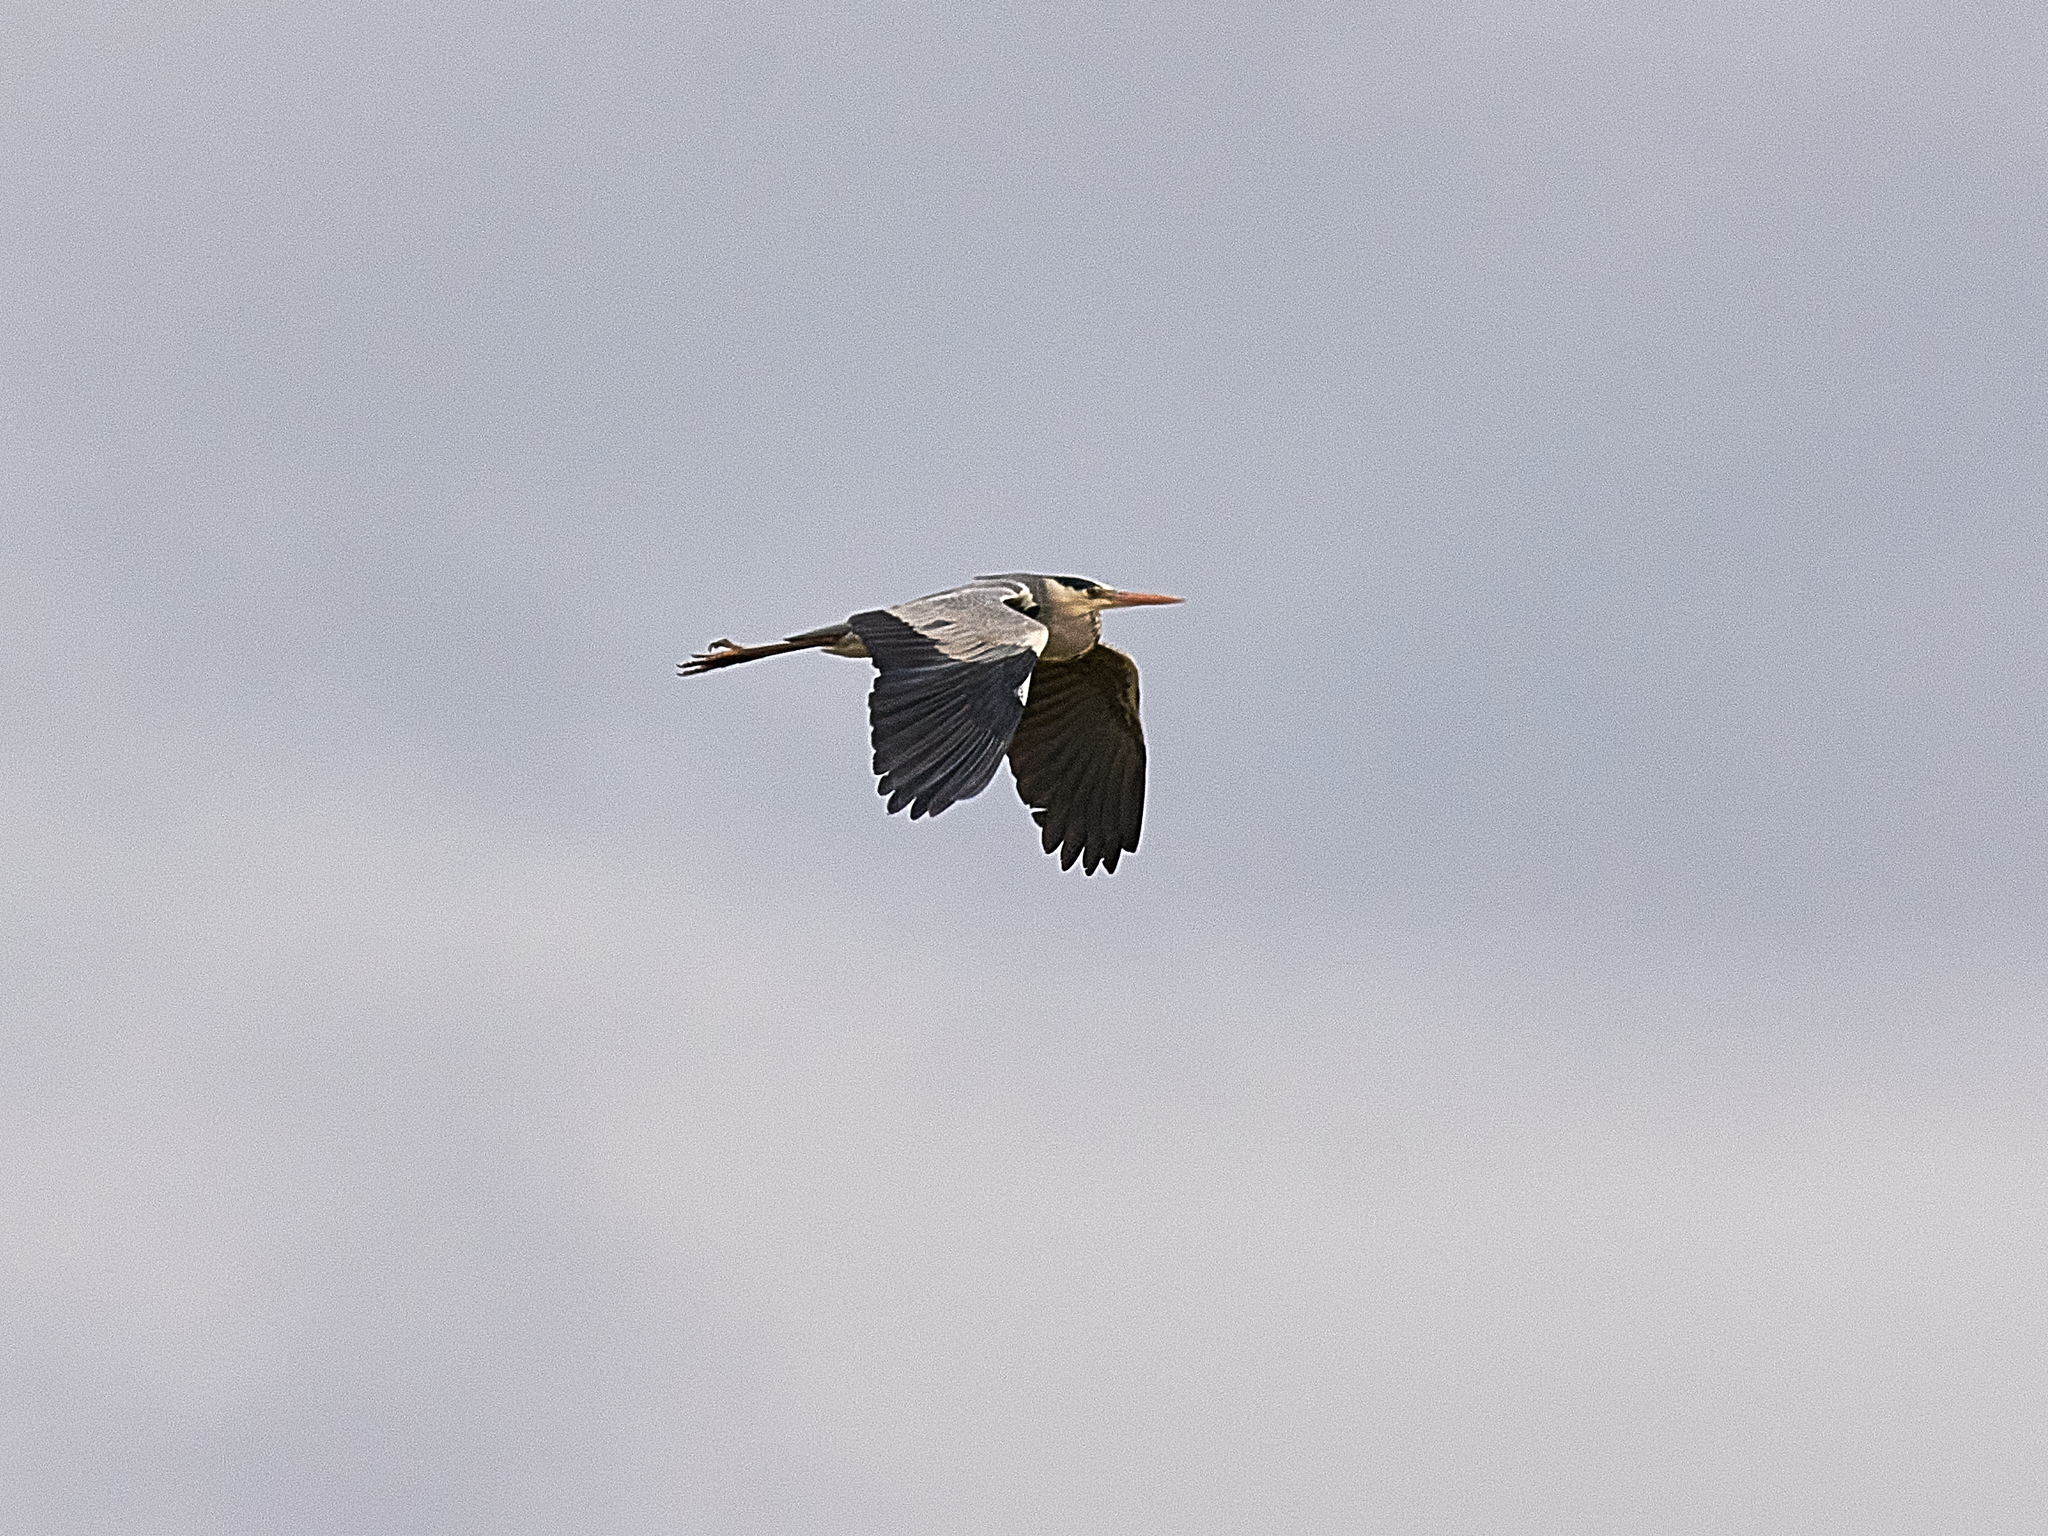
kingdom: Animalia
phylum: Chordata
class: Aves
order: Pelecaniformes
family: Ardeidae
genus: Ardea
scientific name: Ardea cinerea
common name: Grey heron
